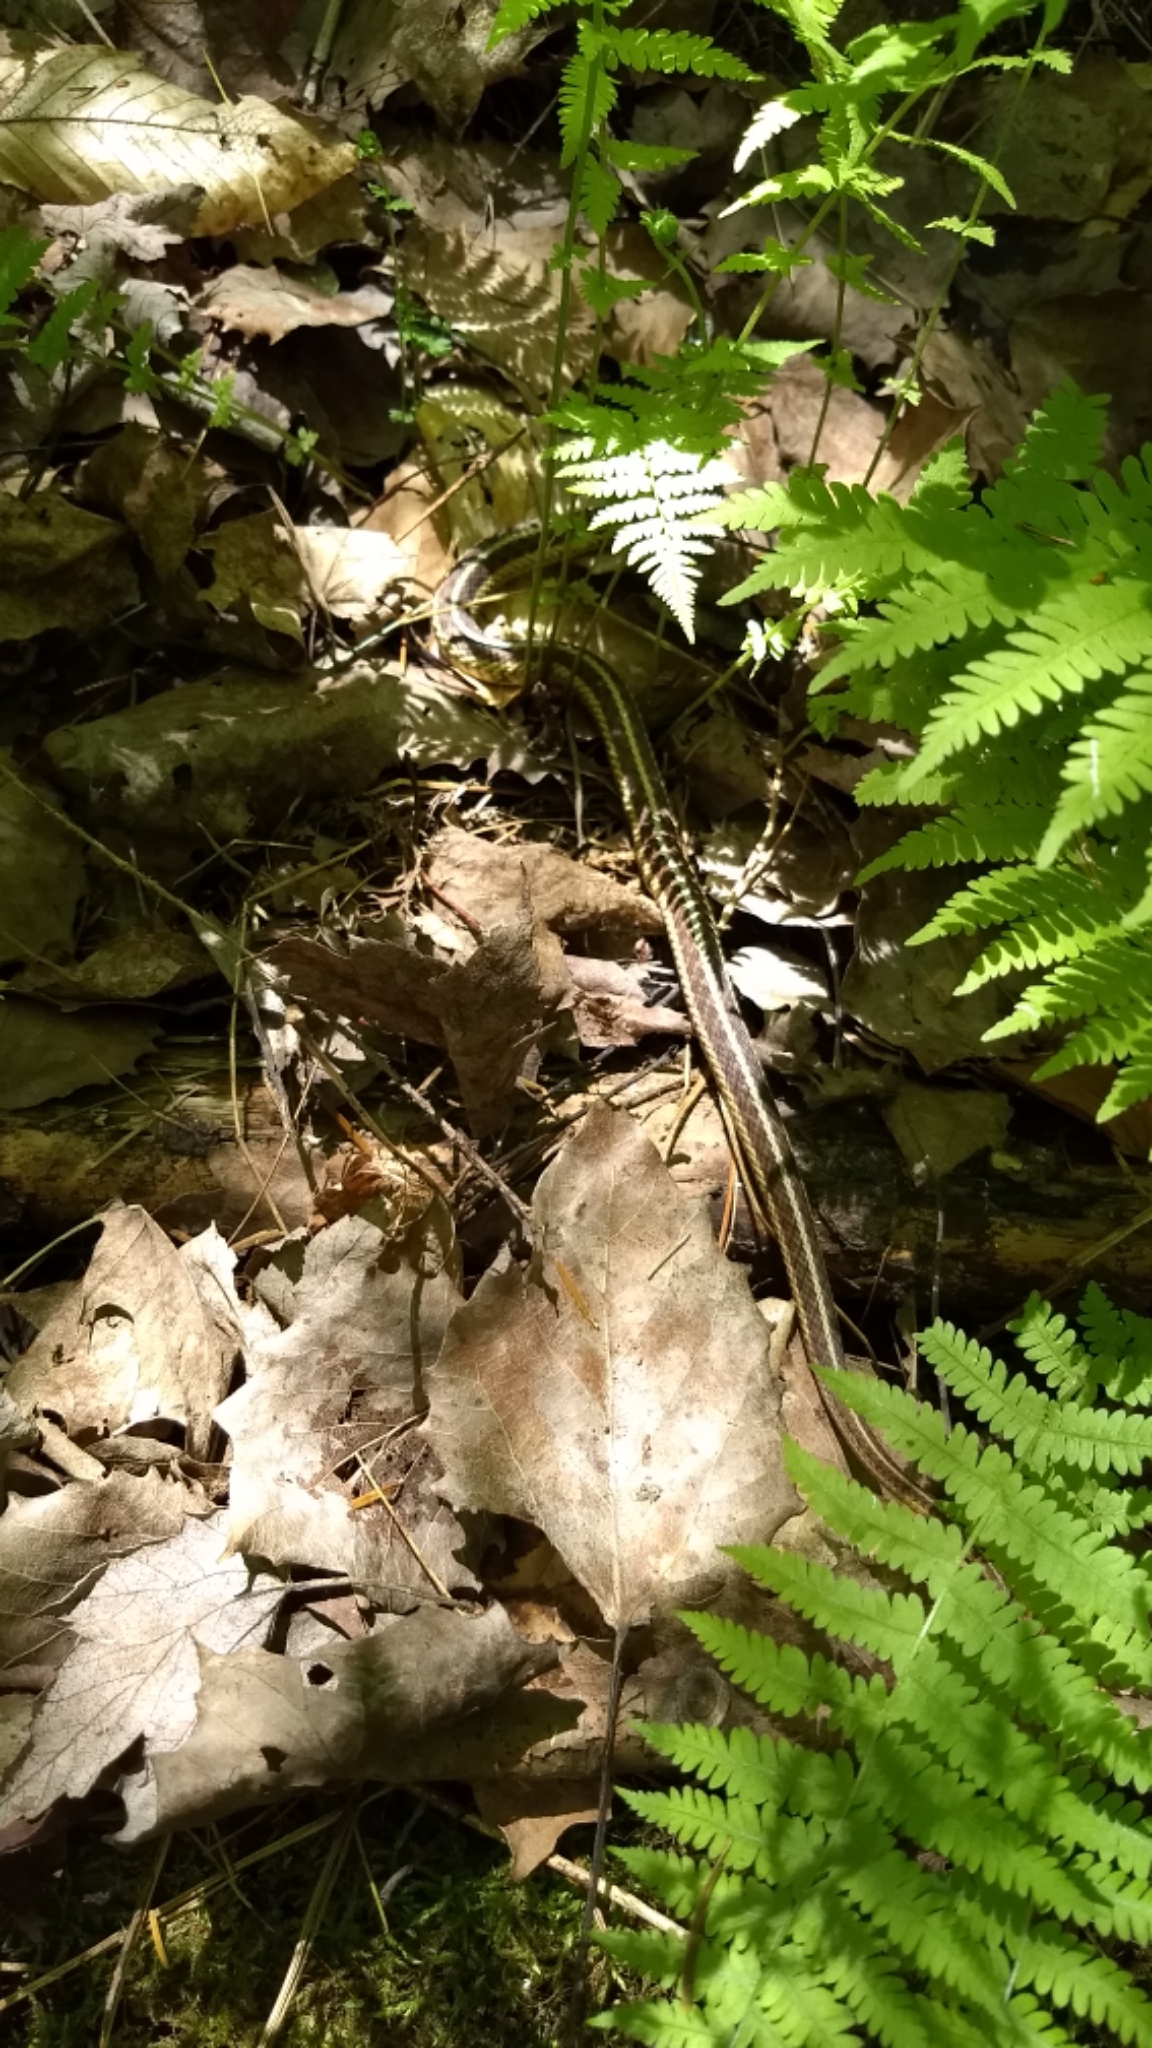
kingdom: Animalia
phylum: Chordata
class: Squamata
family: Colubridae
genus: Thamnophis
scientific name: Thamnophis sirtalis
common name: Common garter snake
